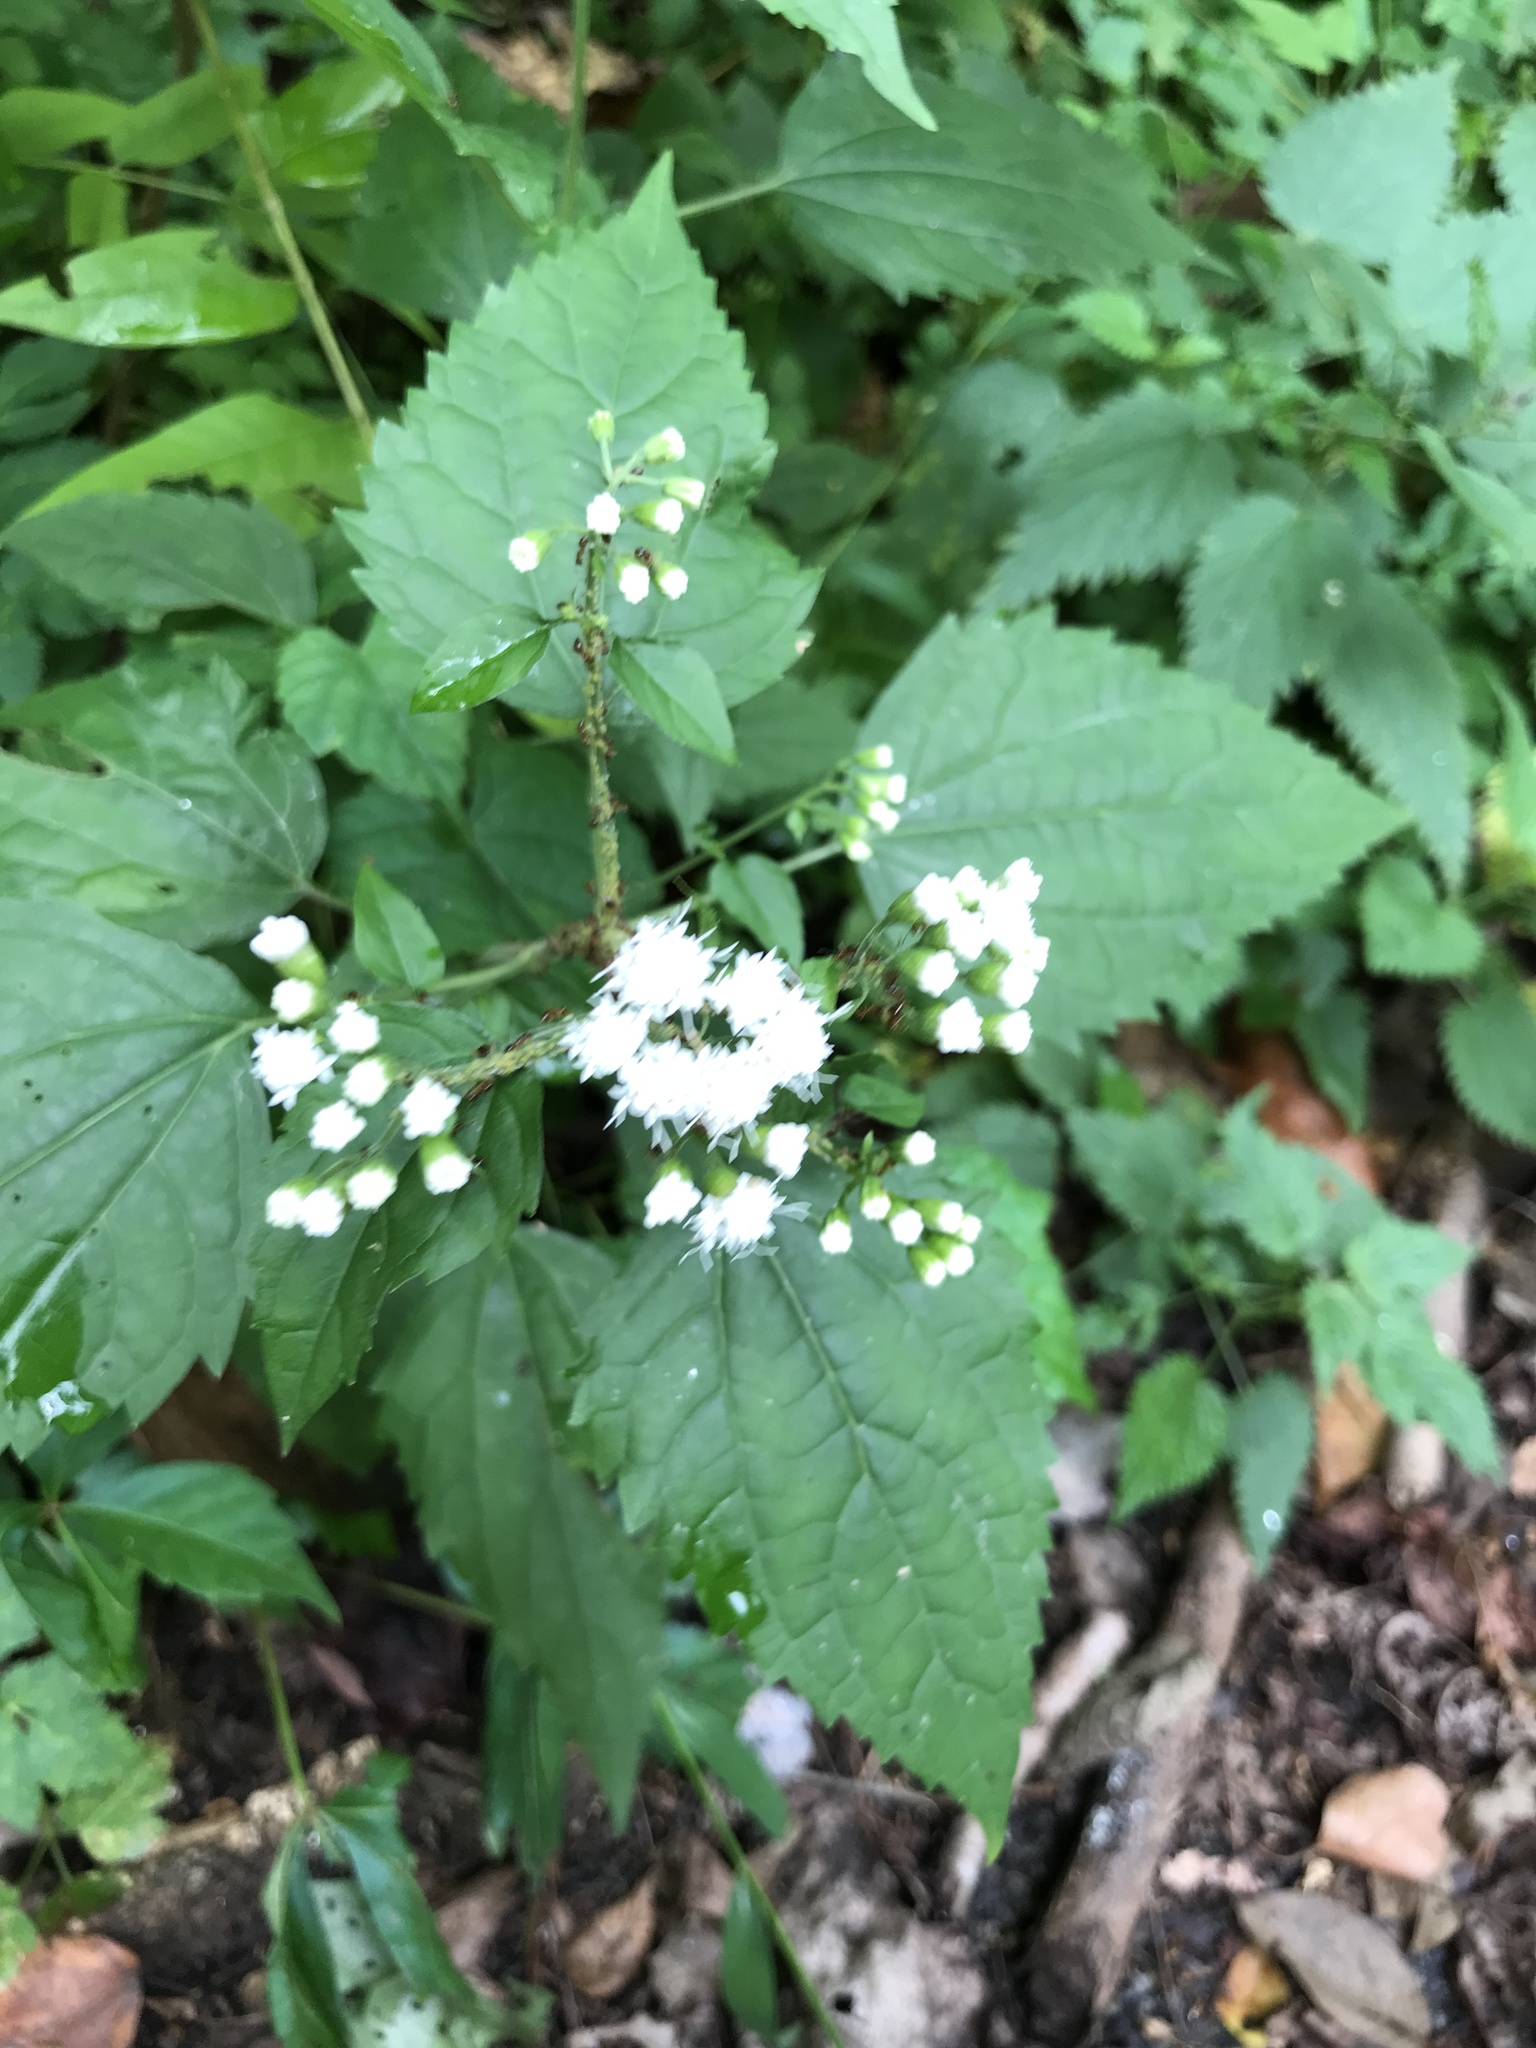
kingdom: Plantae
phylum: Tracheophyta
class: Magnoliopsida
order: Asterales
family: Asteraceae
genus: Ageratina
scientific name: Ageratina altissima
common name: White snakeroot
